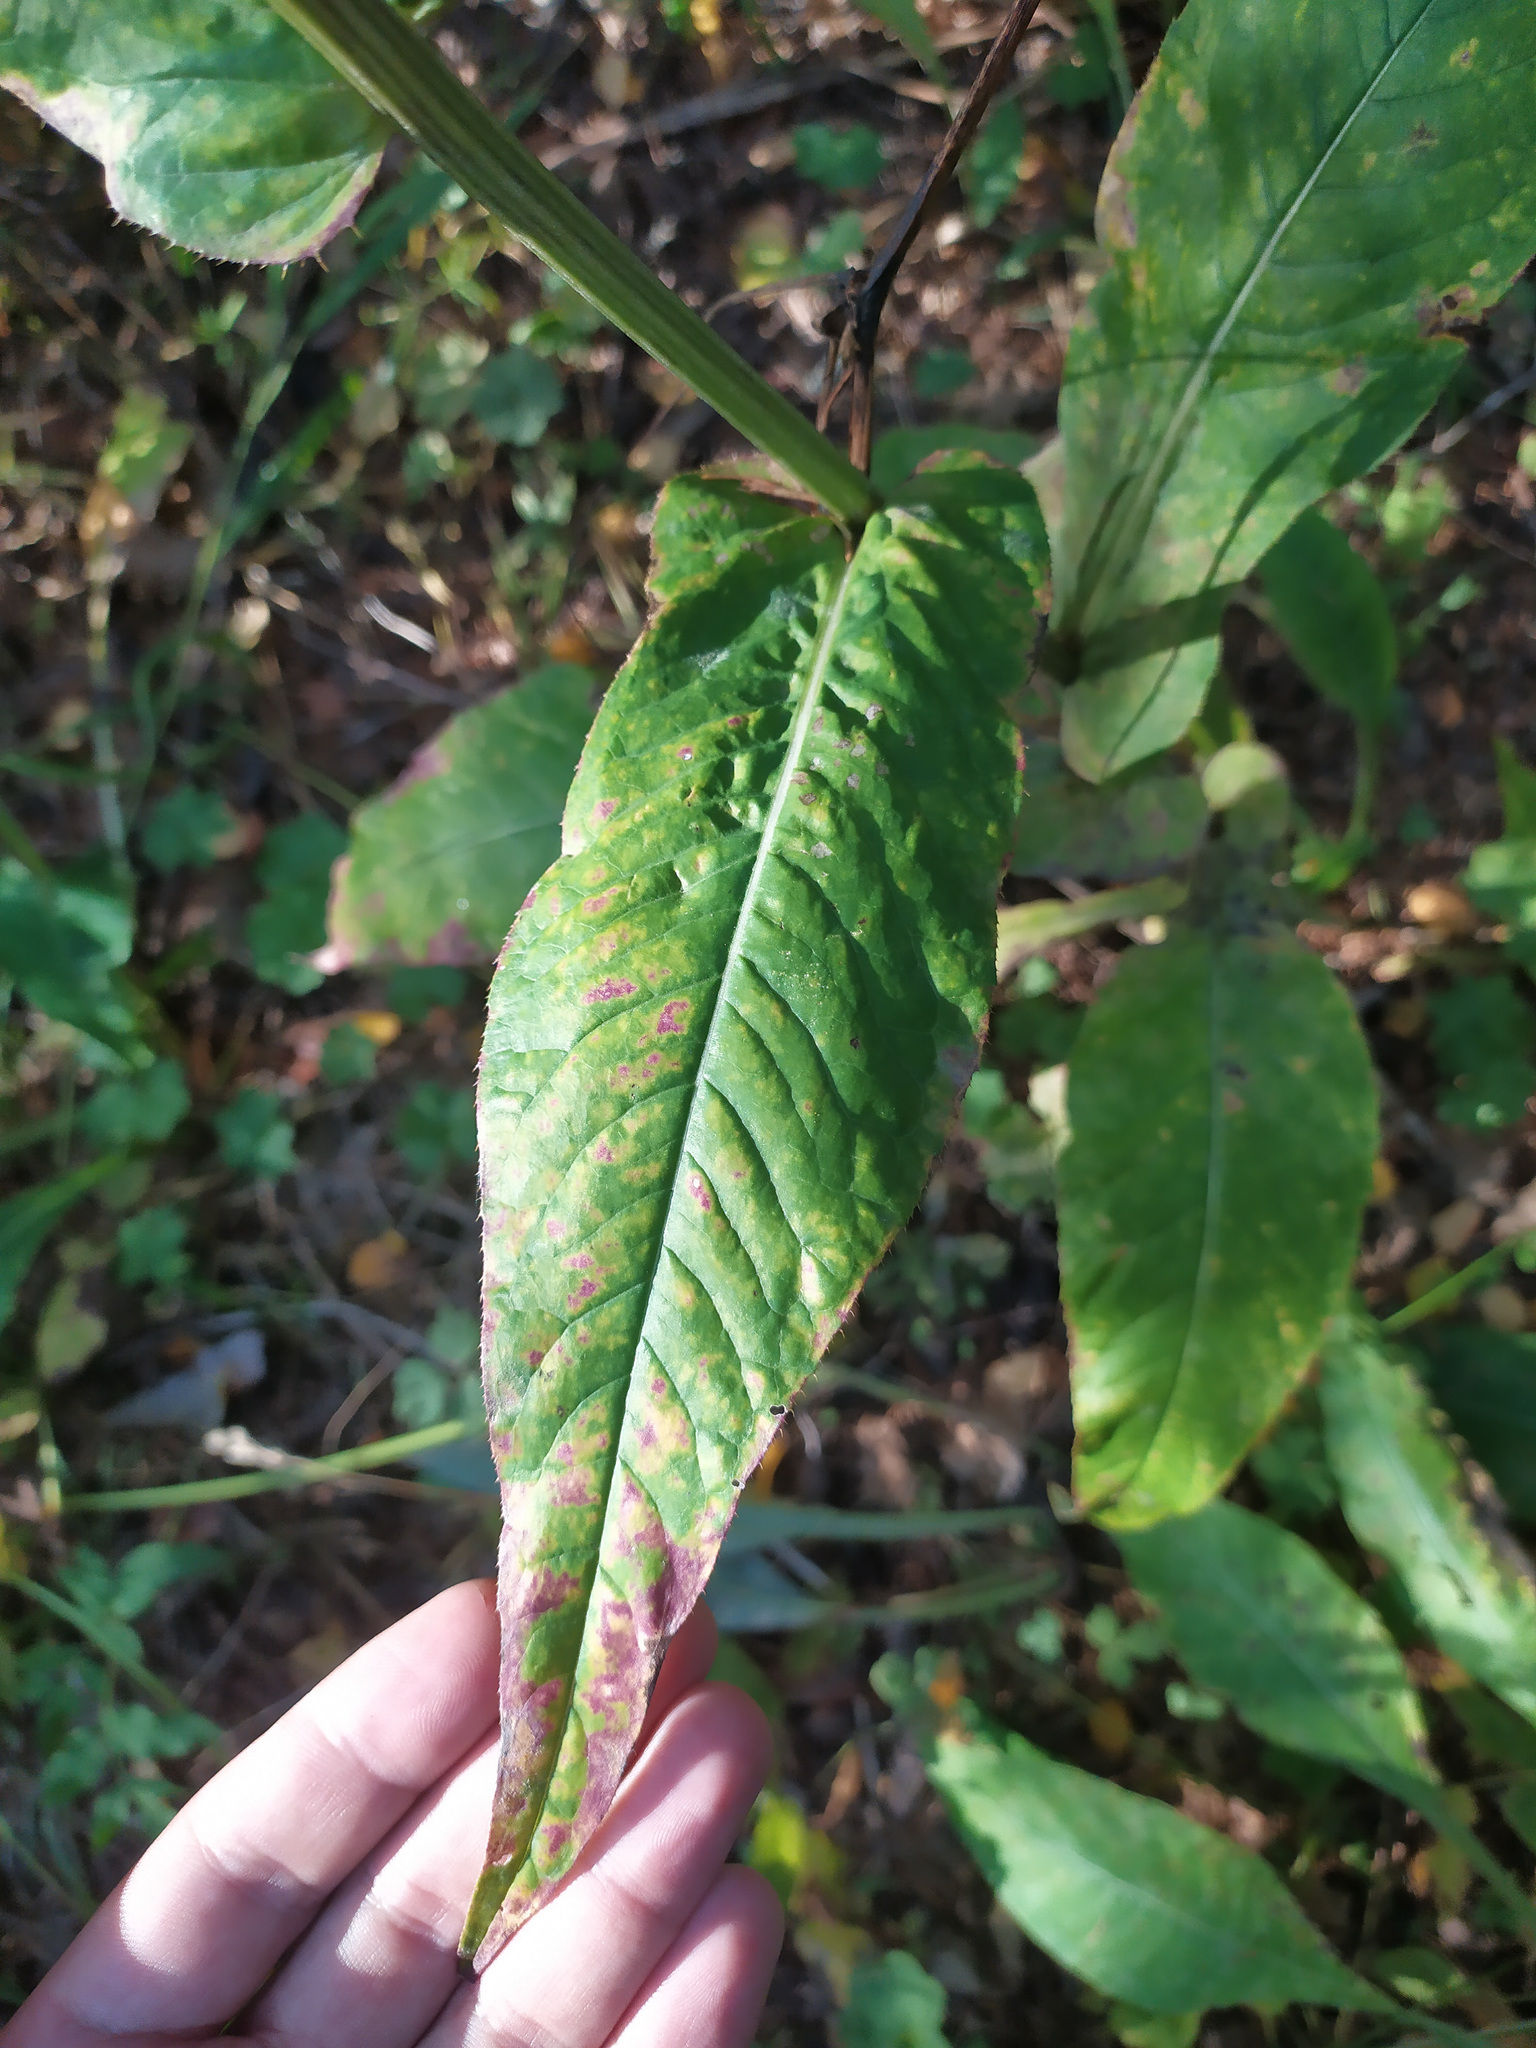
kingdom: Plantae
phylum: Tracheophyta
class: Magnoliopsida
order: Asterales
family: Asteraceae
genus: Cirsium
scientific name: Cirsium heterophyllum
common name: Melancholy thistle
